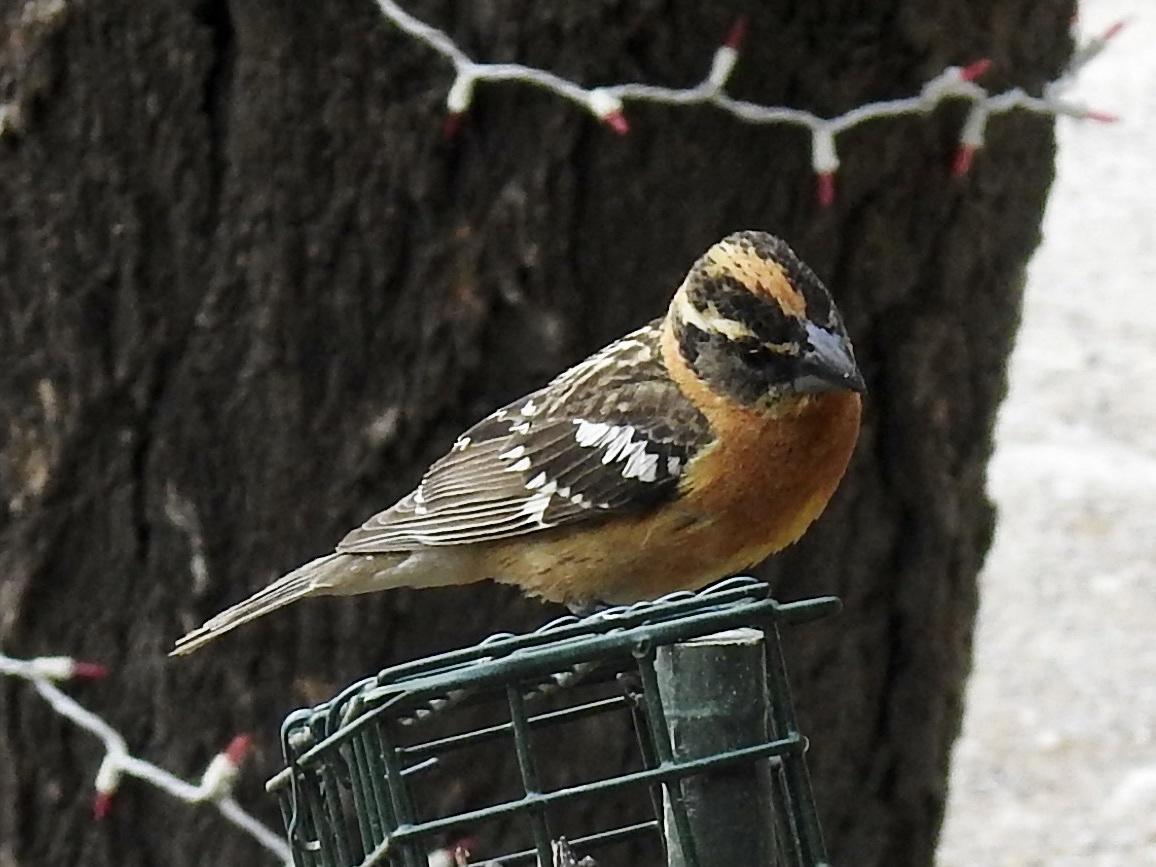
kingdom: Animalia
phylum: Chordata
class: Aves
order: Passeriformes
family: Cardinalidae
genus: Pheucticus
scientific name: Pheucticus melanocephalus
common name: Black-headed grosbeak
